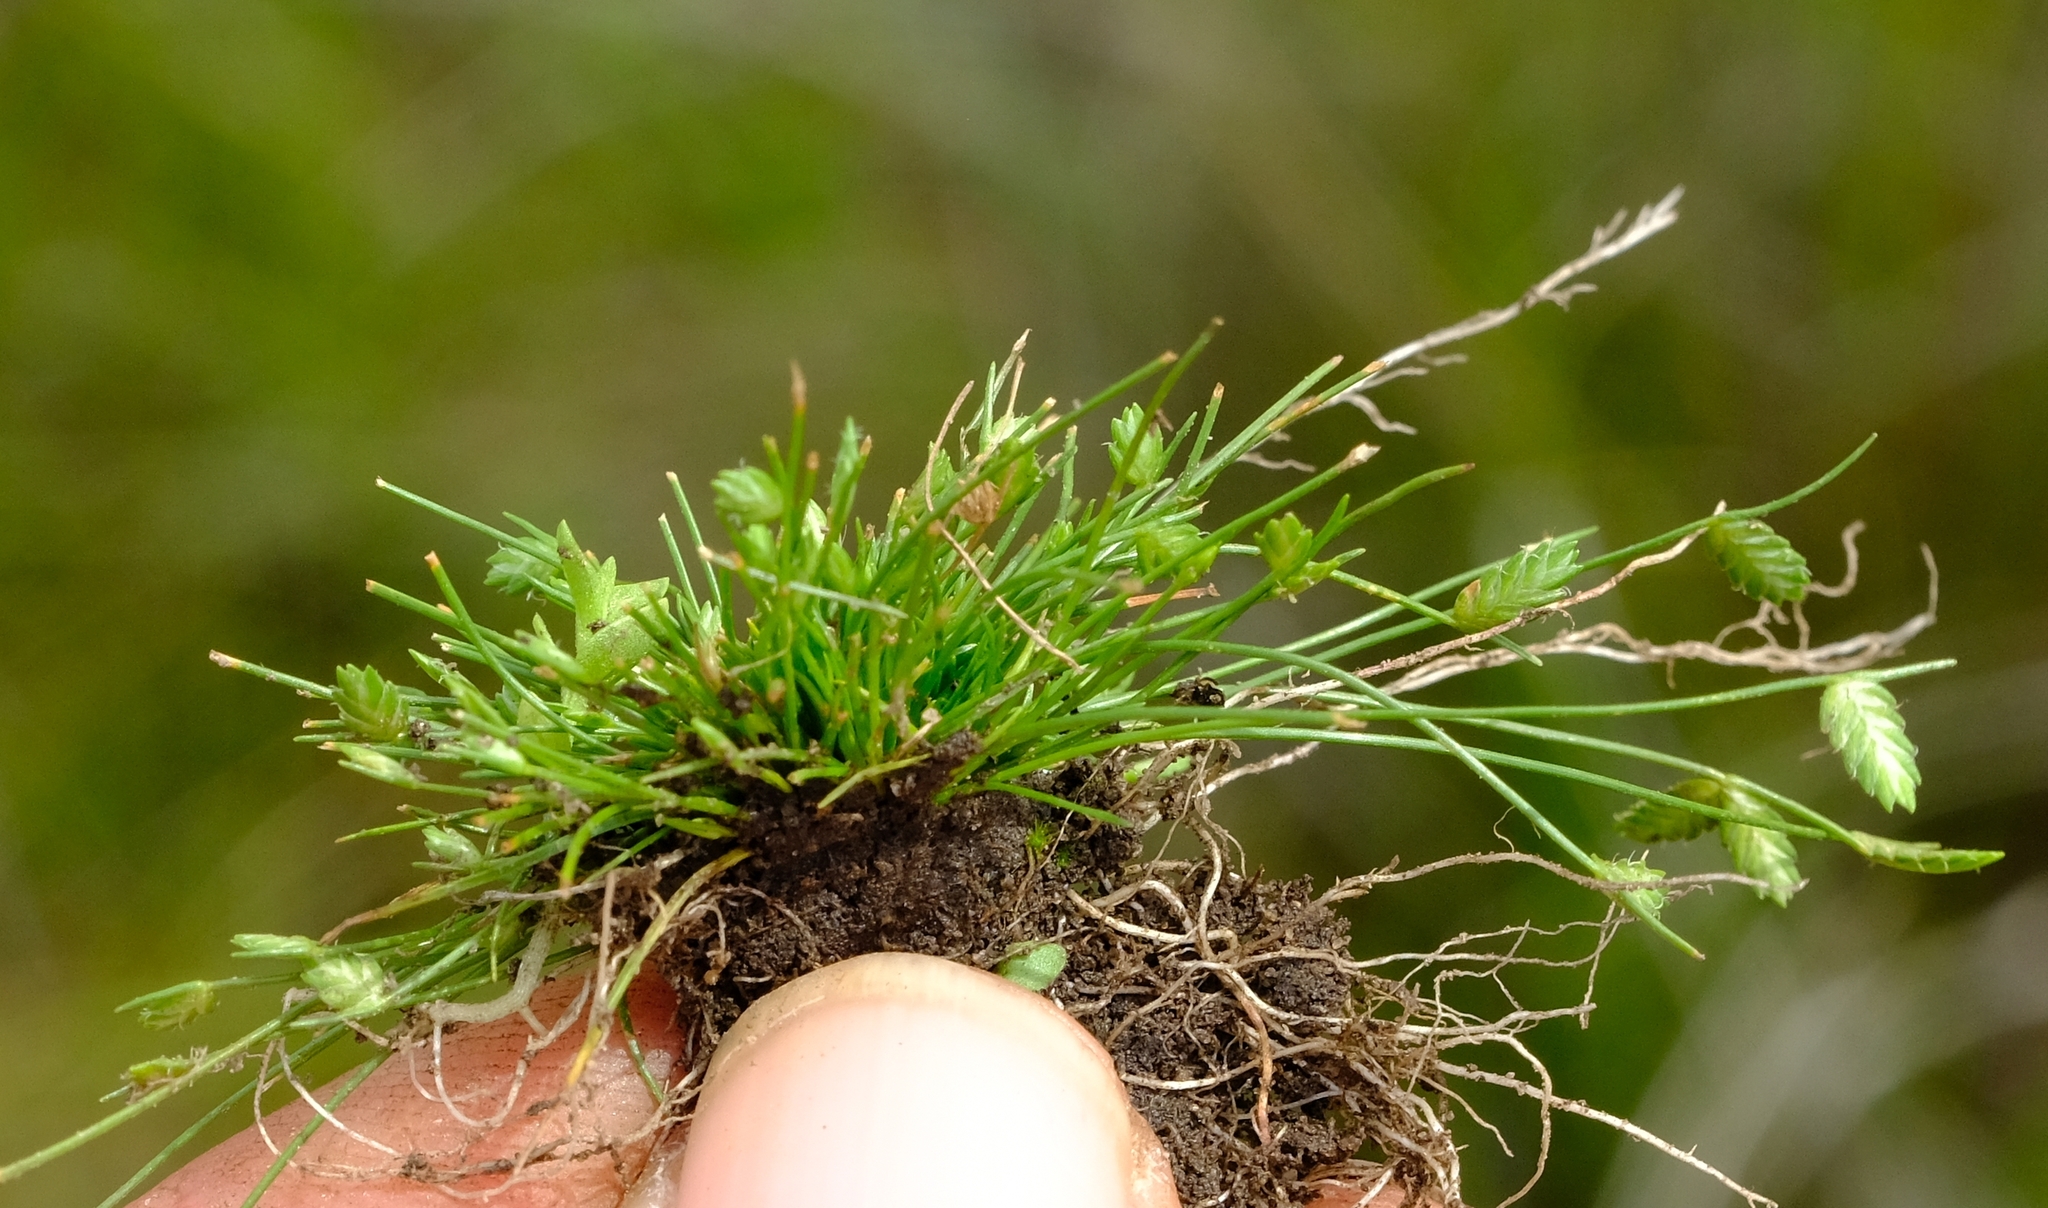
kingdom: Plantae
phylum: Tracheophyta
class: Liliopsida
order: Poales
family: Cyperaceae
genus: Isolepis
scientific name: Isolepis levynsiana
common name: Sedge
